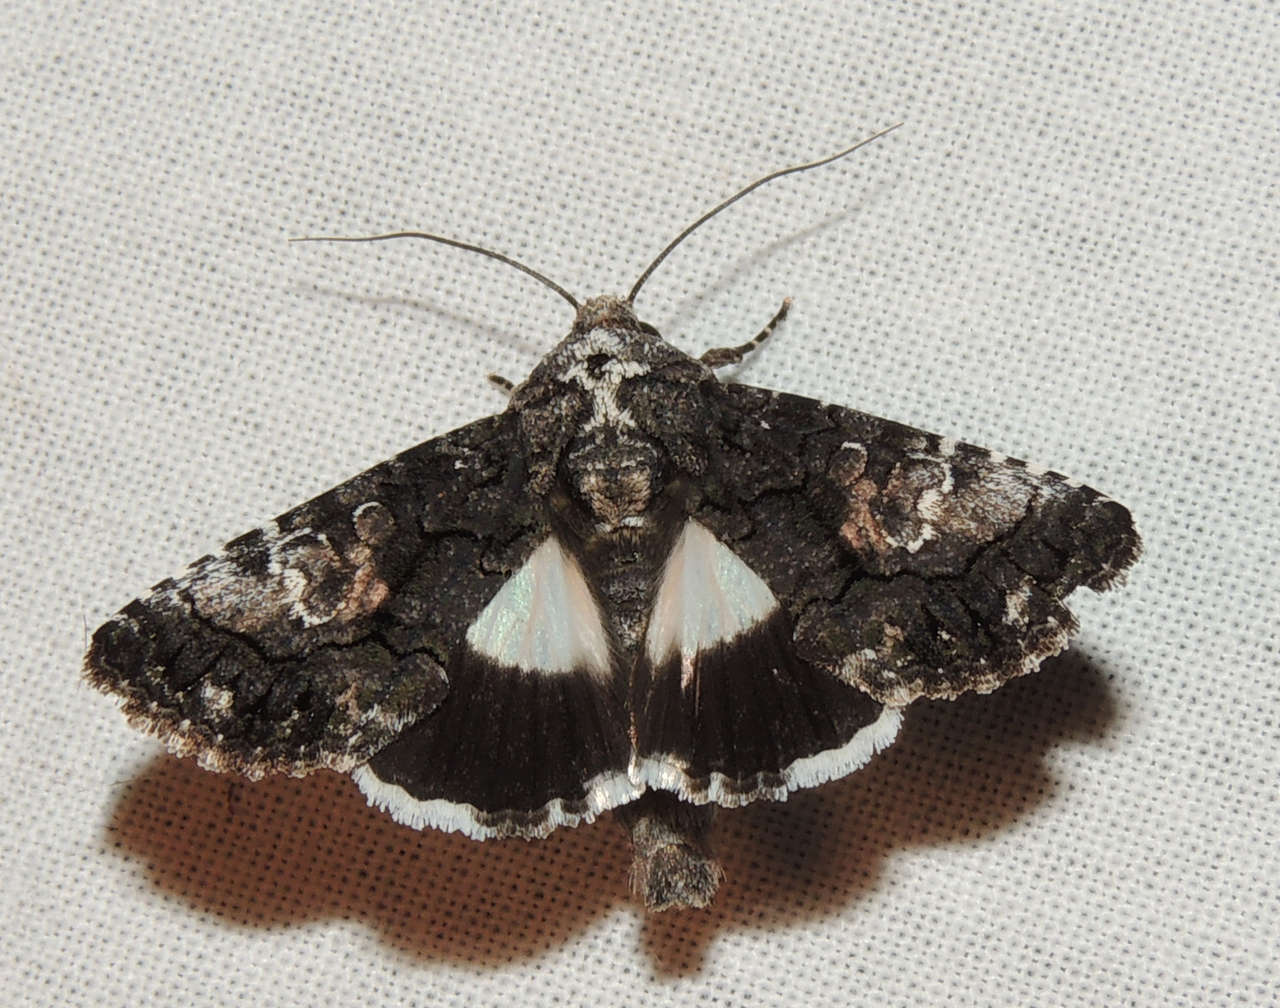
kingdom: Animalia
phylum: Arthropoda
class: Insecta
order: Lepidoptera
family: Noctuidae
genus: Aedia
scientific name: Aedia leucomelas
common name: Sorcerer
